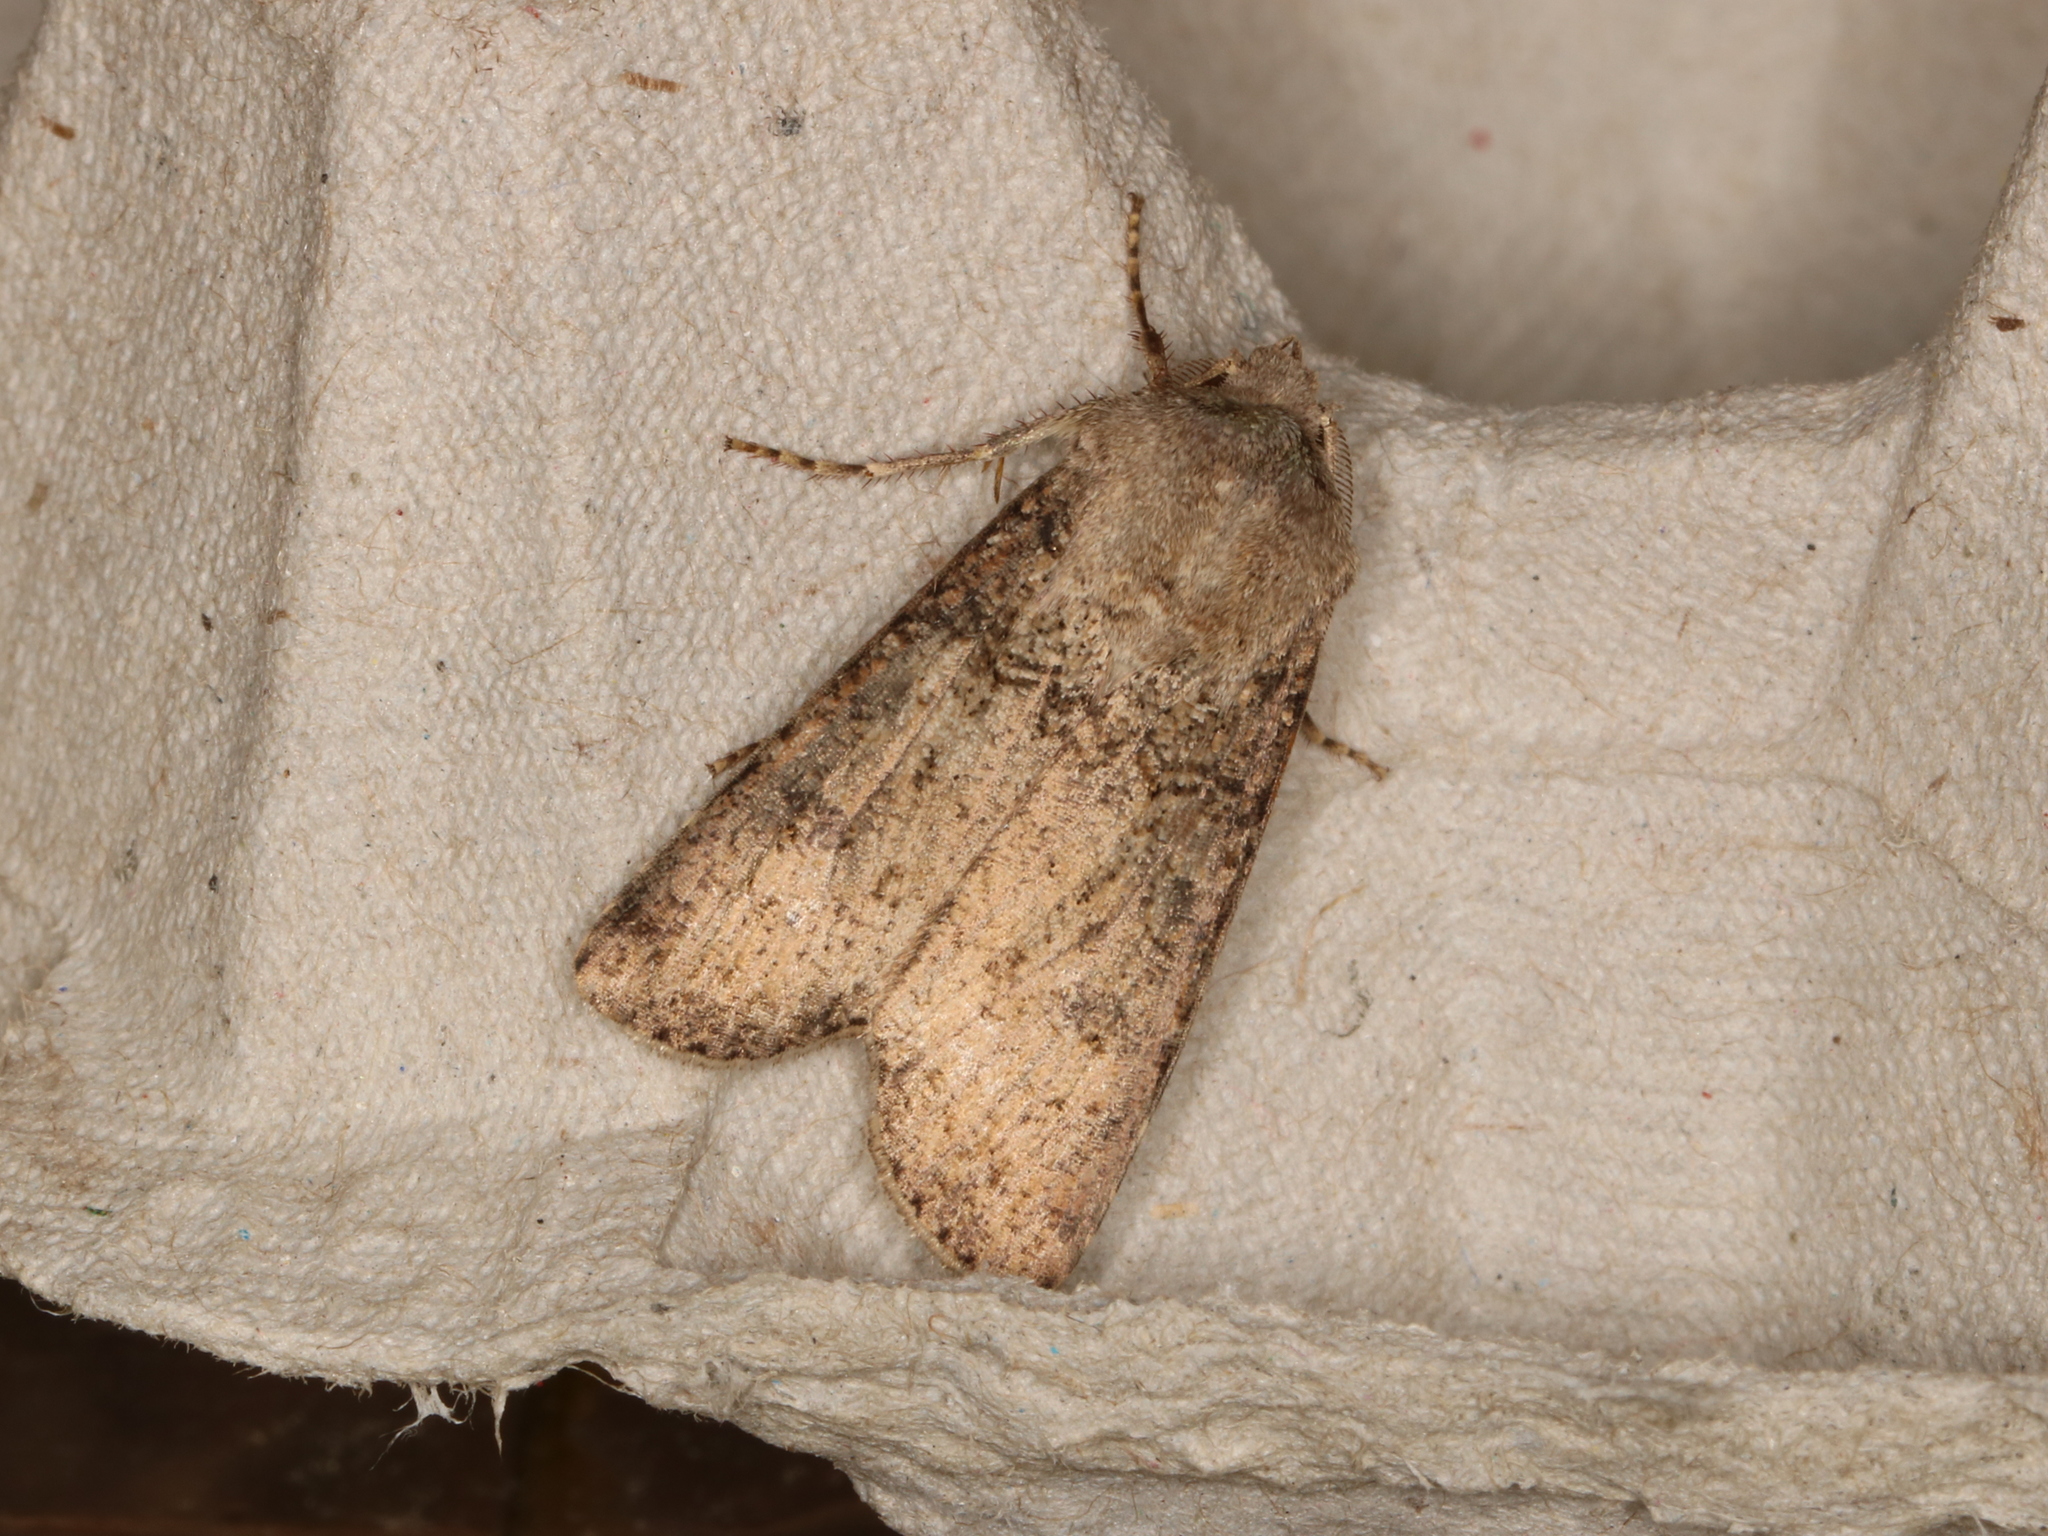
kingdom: Animalia
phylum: Arthropoda
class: Insecta
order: Lepidoptera
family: Noctuidae
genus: Agrotis
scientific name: Agrotis segetum
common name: Turnip moth
